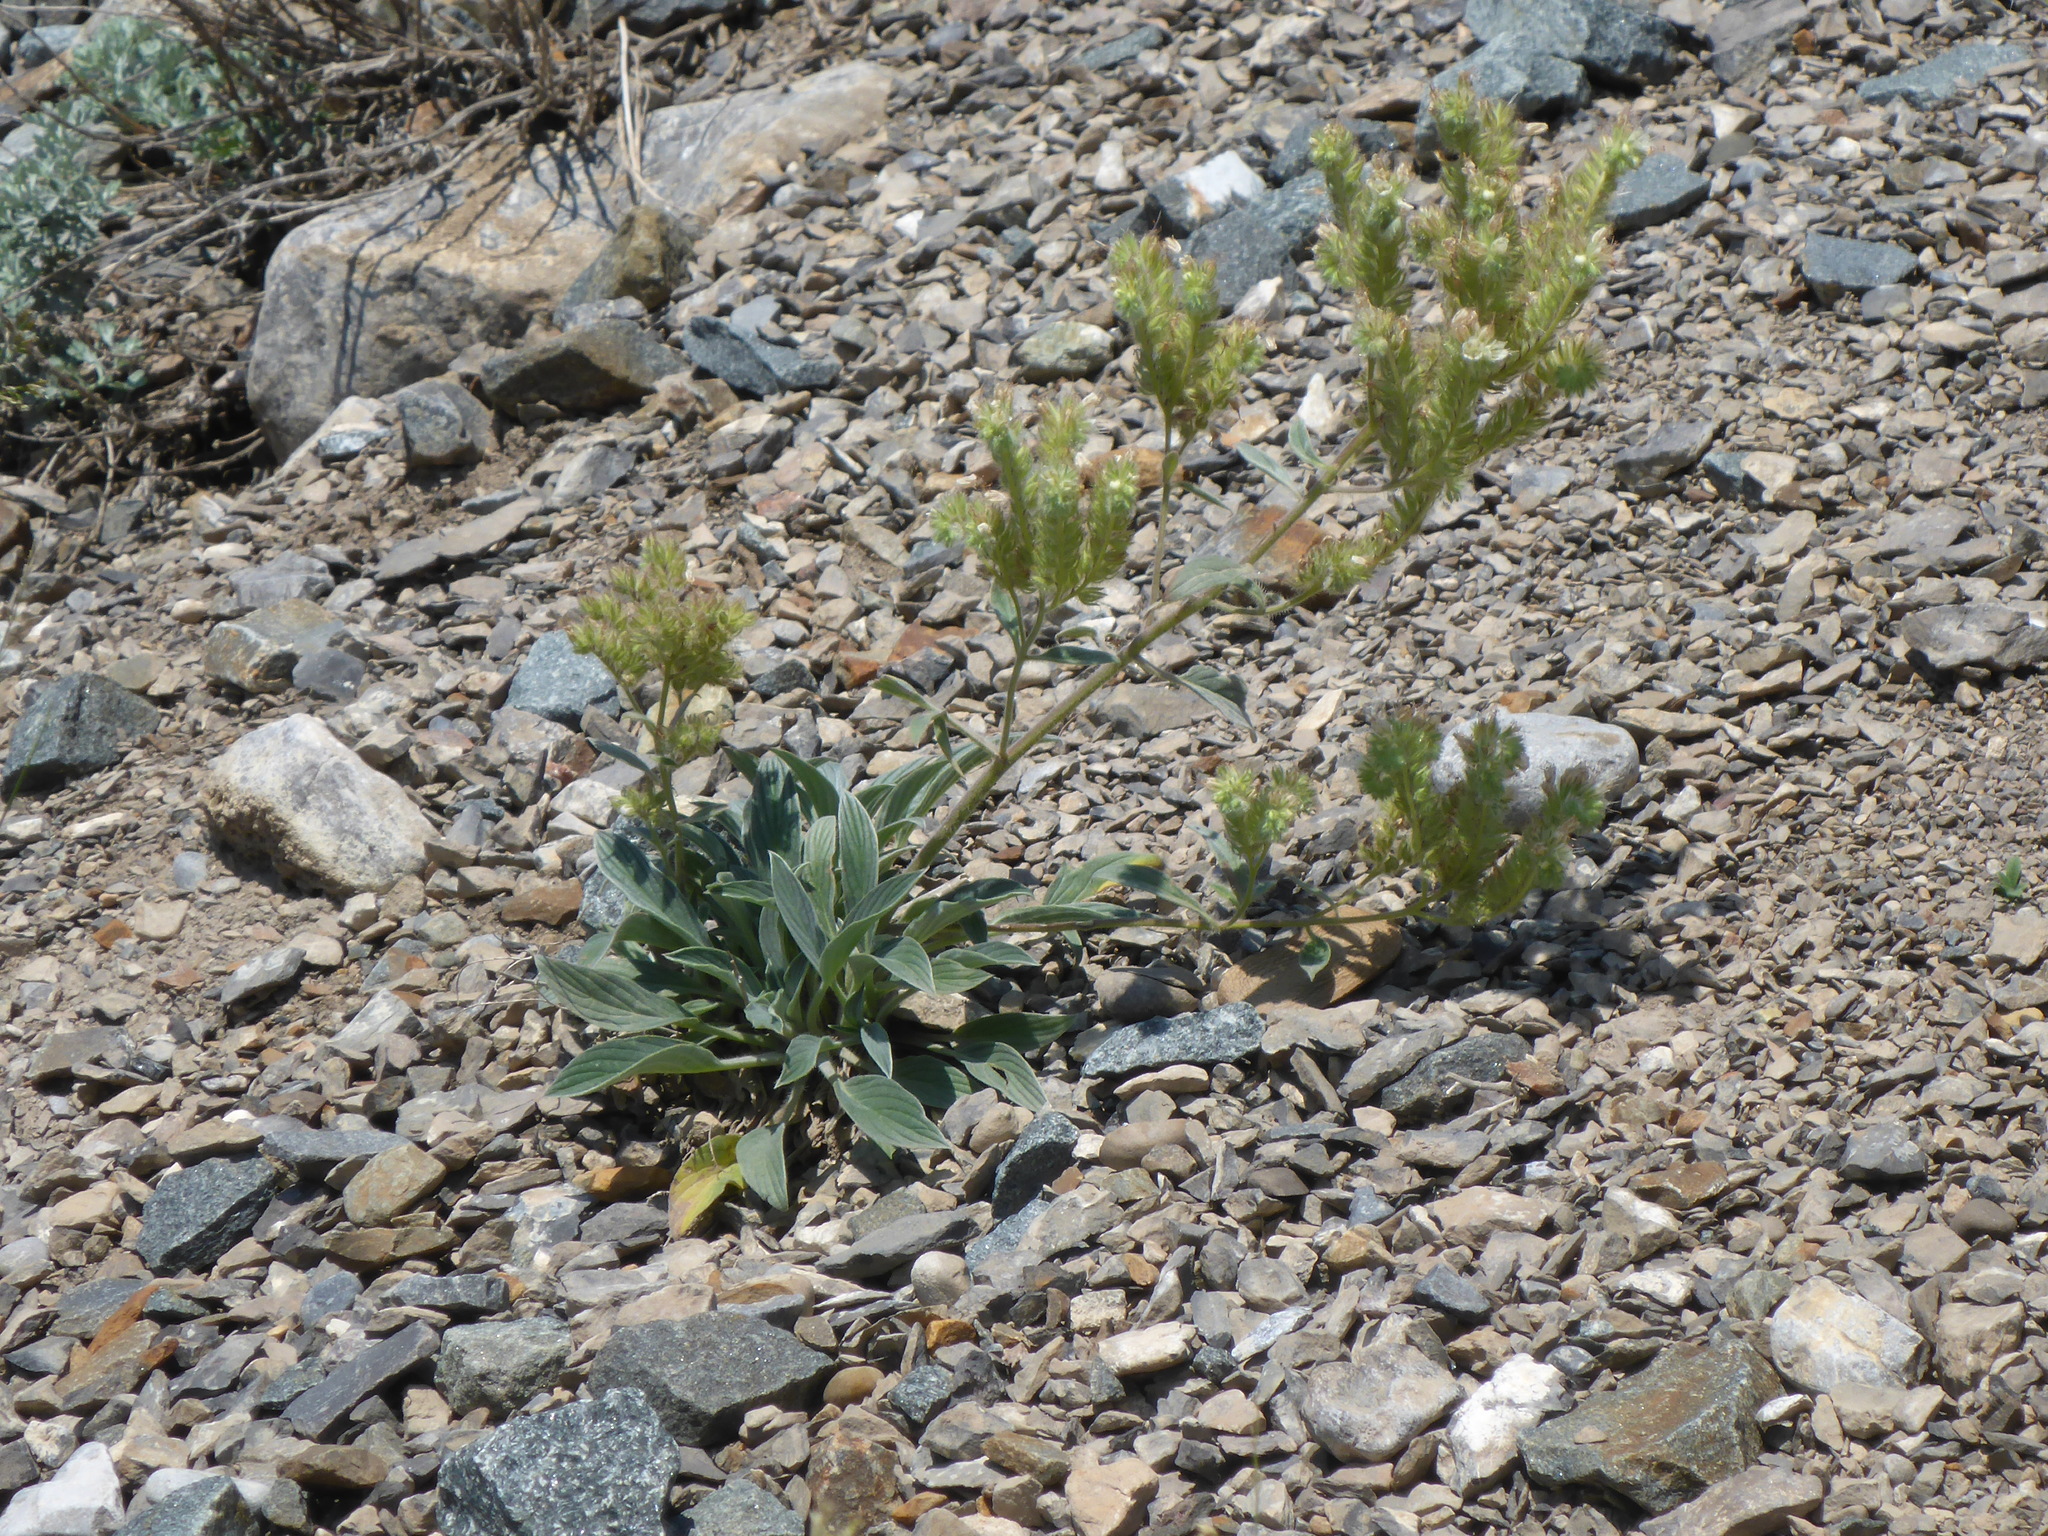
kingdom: Plantae
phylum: Tracheophyta
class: Magnoliopsida
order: Boraginales
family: Hydrophyllaceae
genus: Phacelia
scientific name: Phacelia hastata
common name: Silver-leaved phacelia
